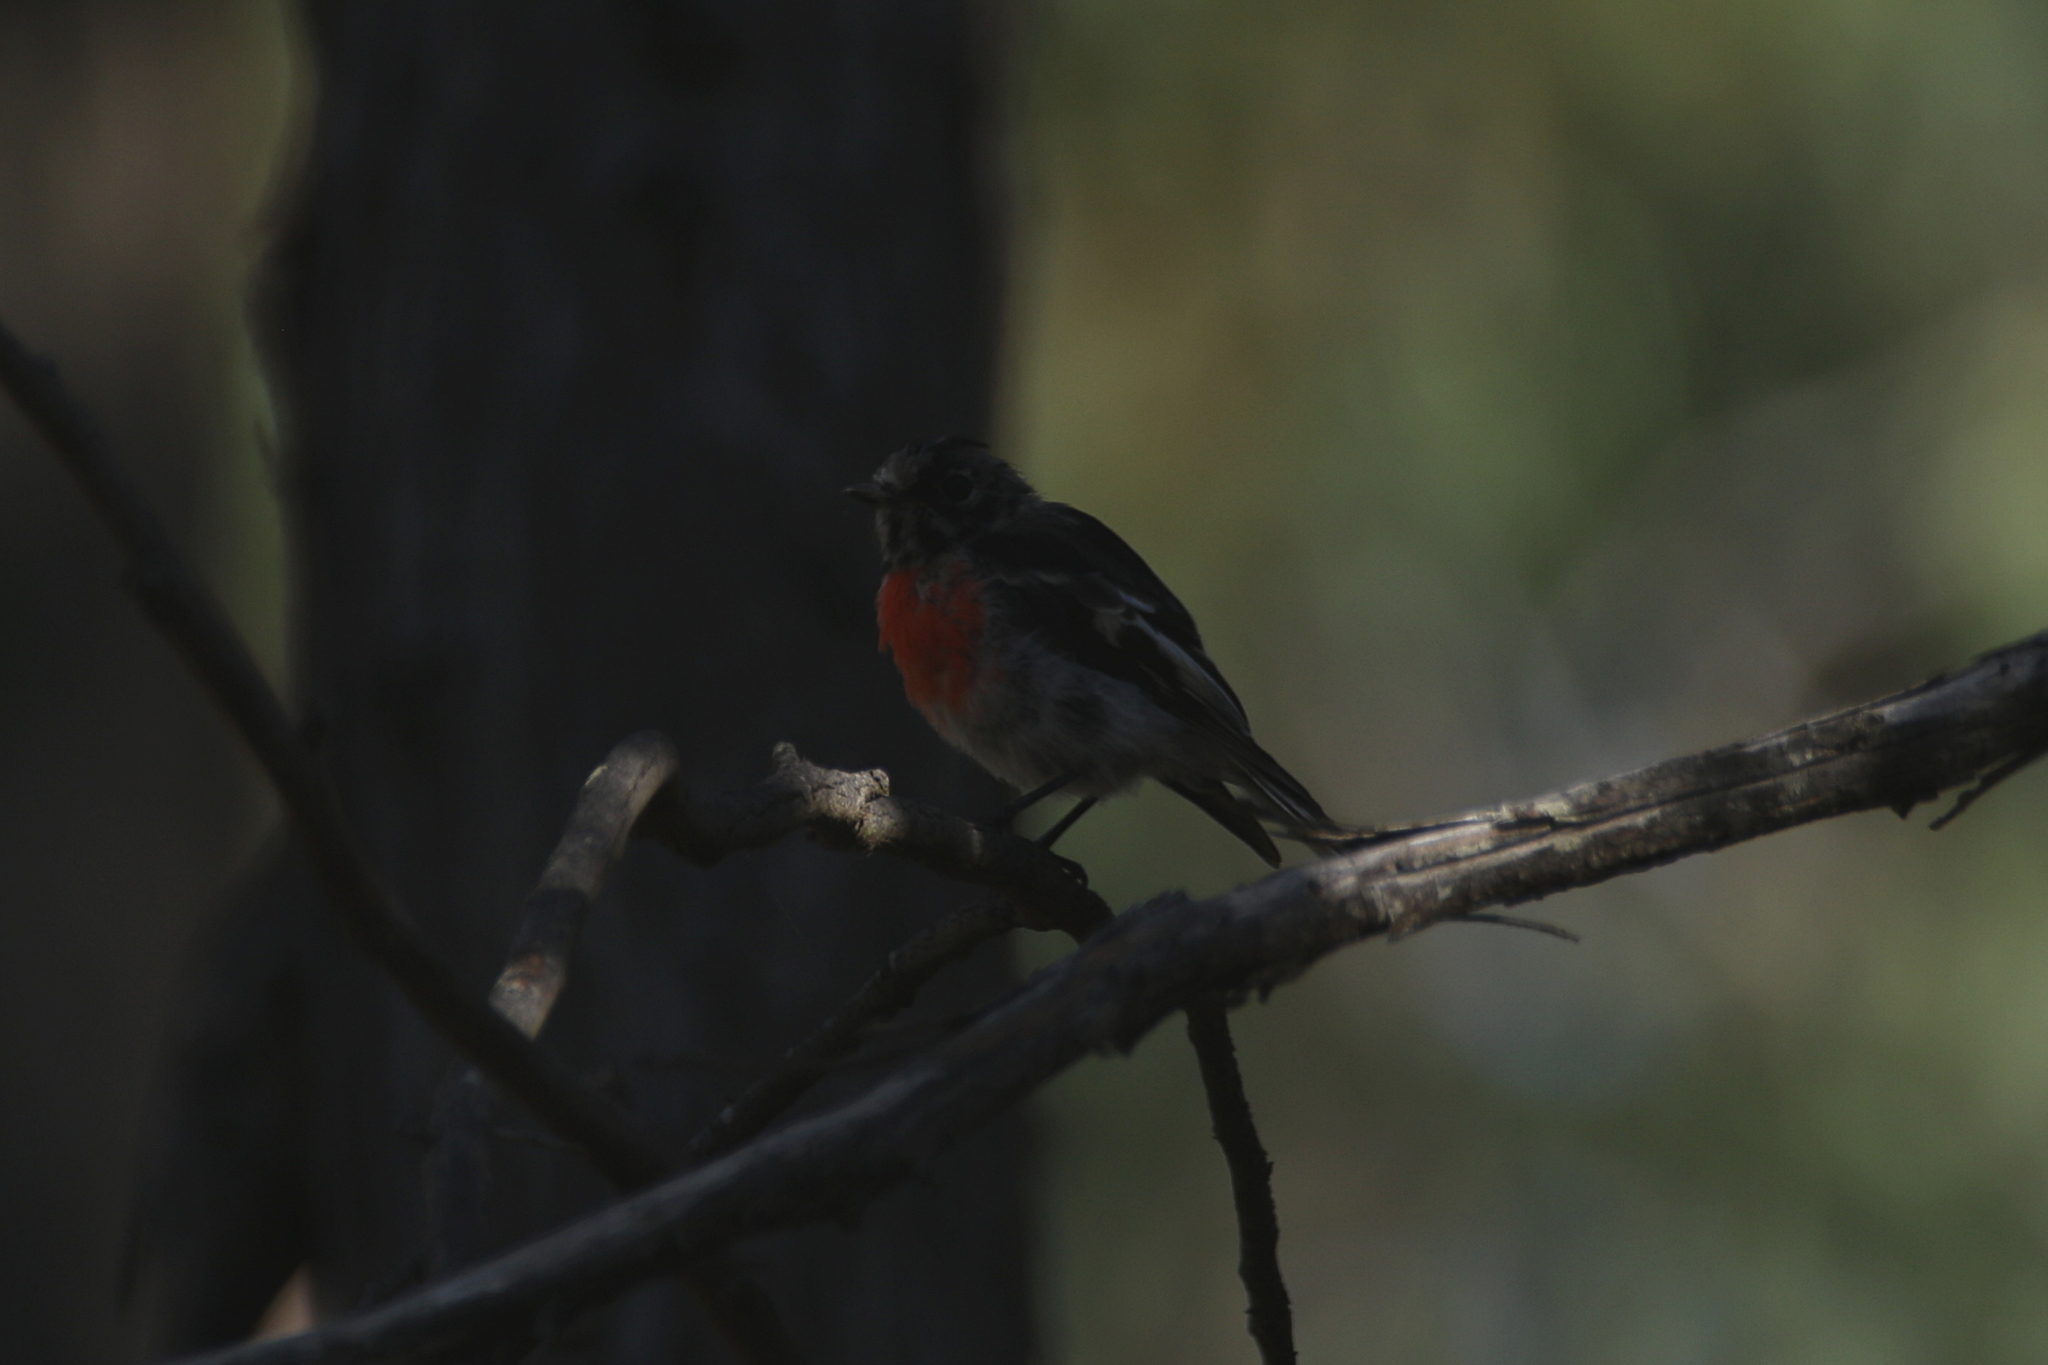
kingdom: Animalia
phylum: Chordata
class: Aves
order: Passeriformes
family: Petroicidae
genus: Petroica
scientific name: Petroica boodang
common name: Scarlet robin
